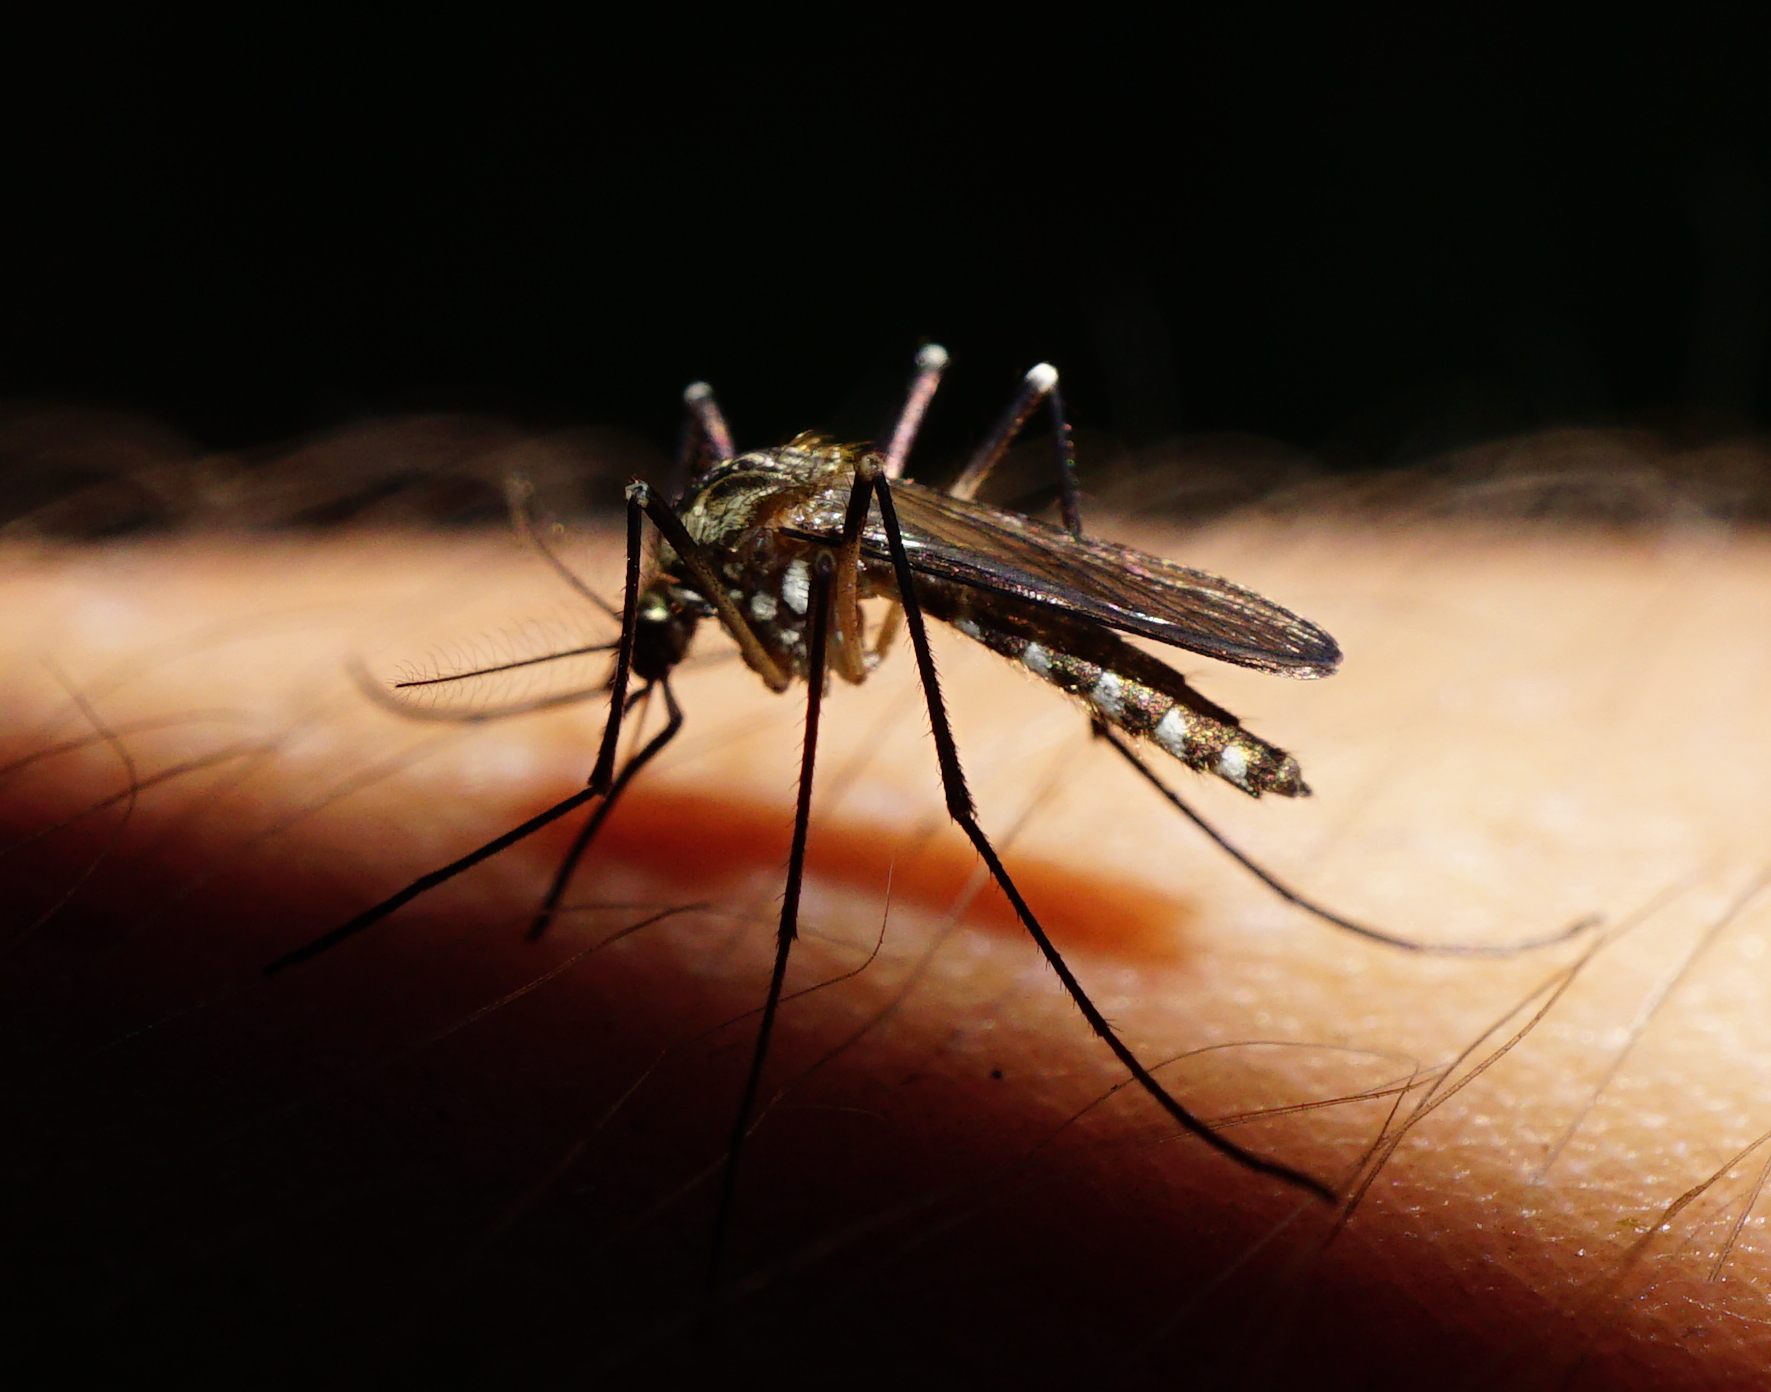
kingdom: Animalia
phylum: Arthropoda
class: Insecta
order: Diptera
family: Culicidae
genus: Aedes
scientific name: Aedes geniculatus
